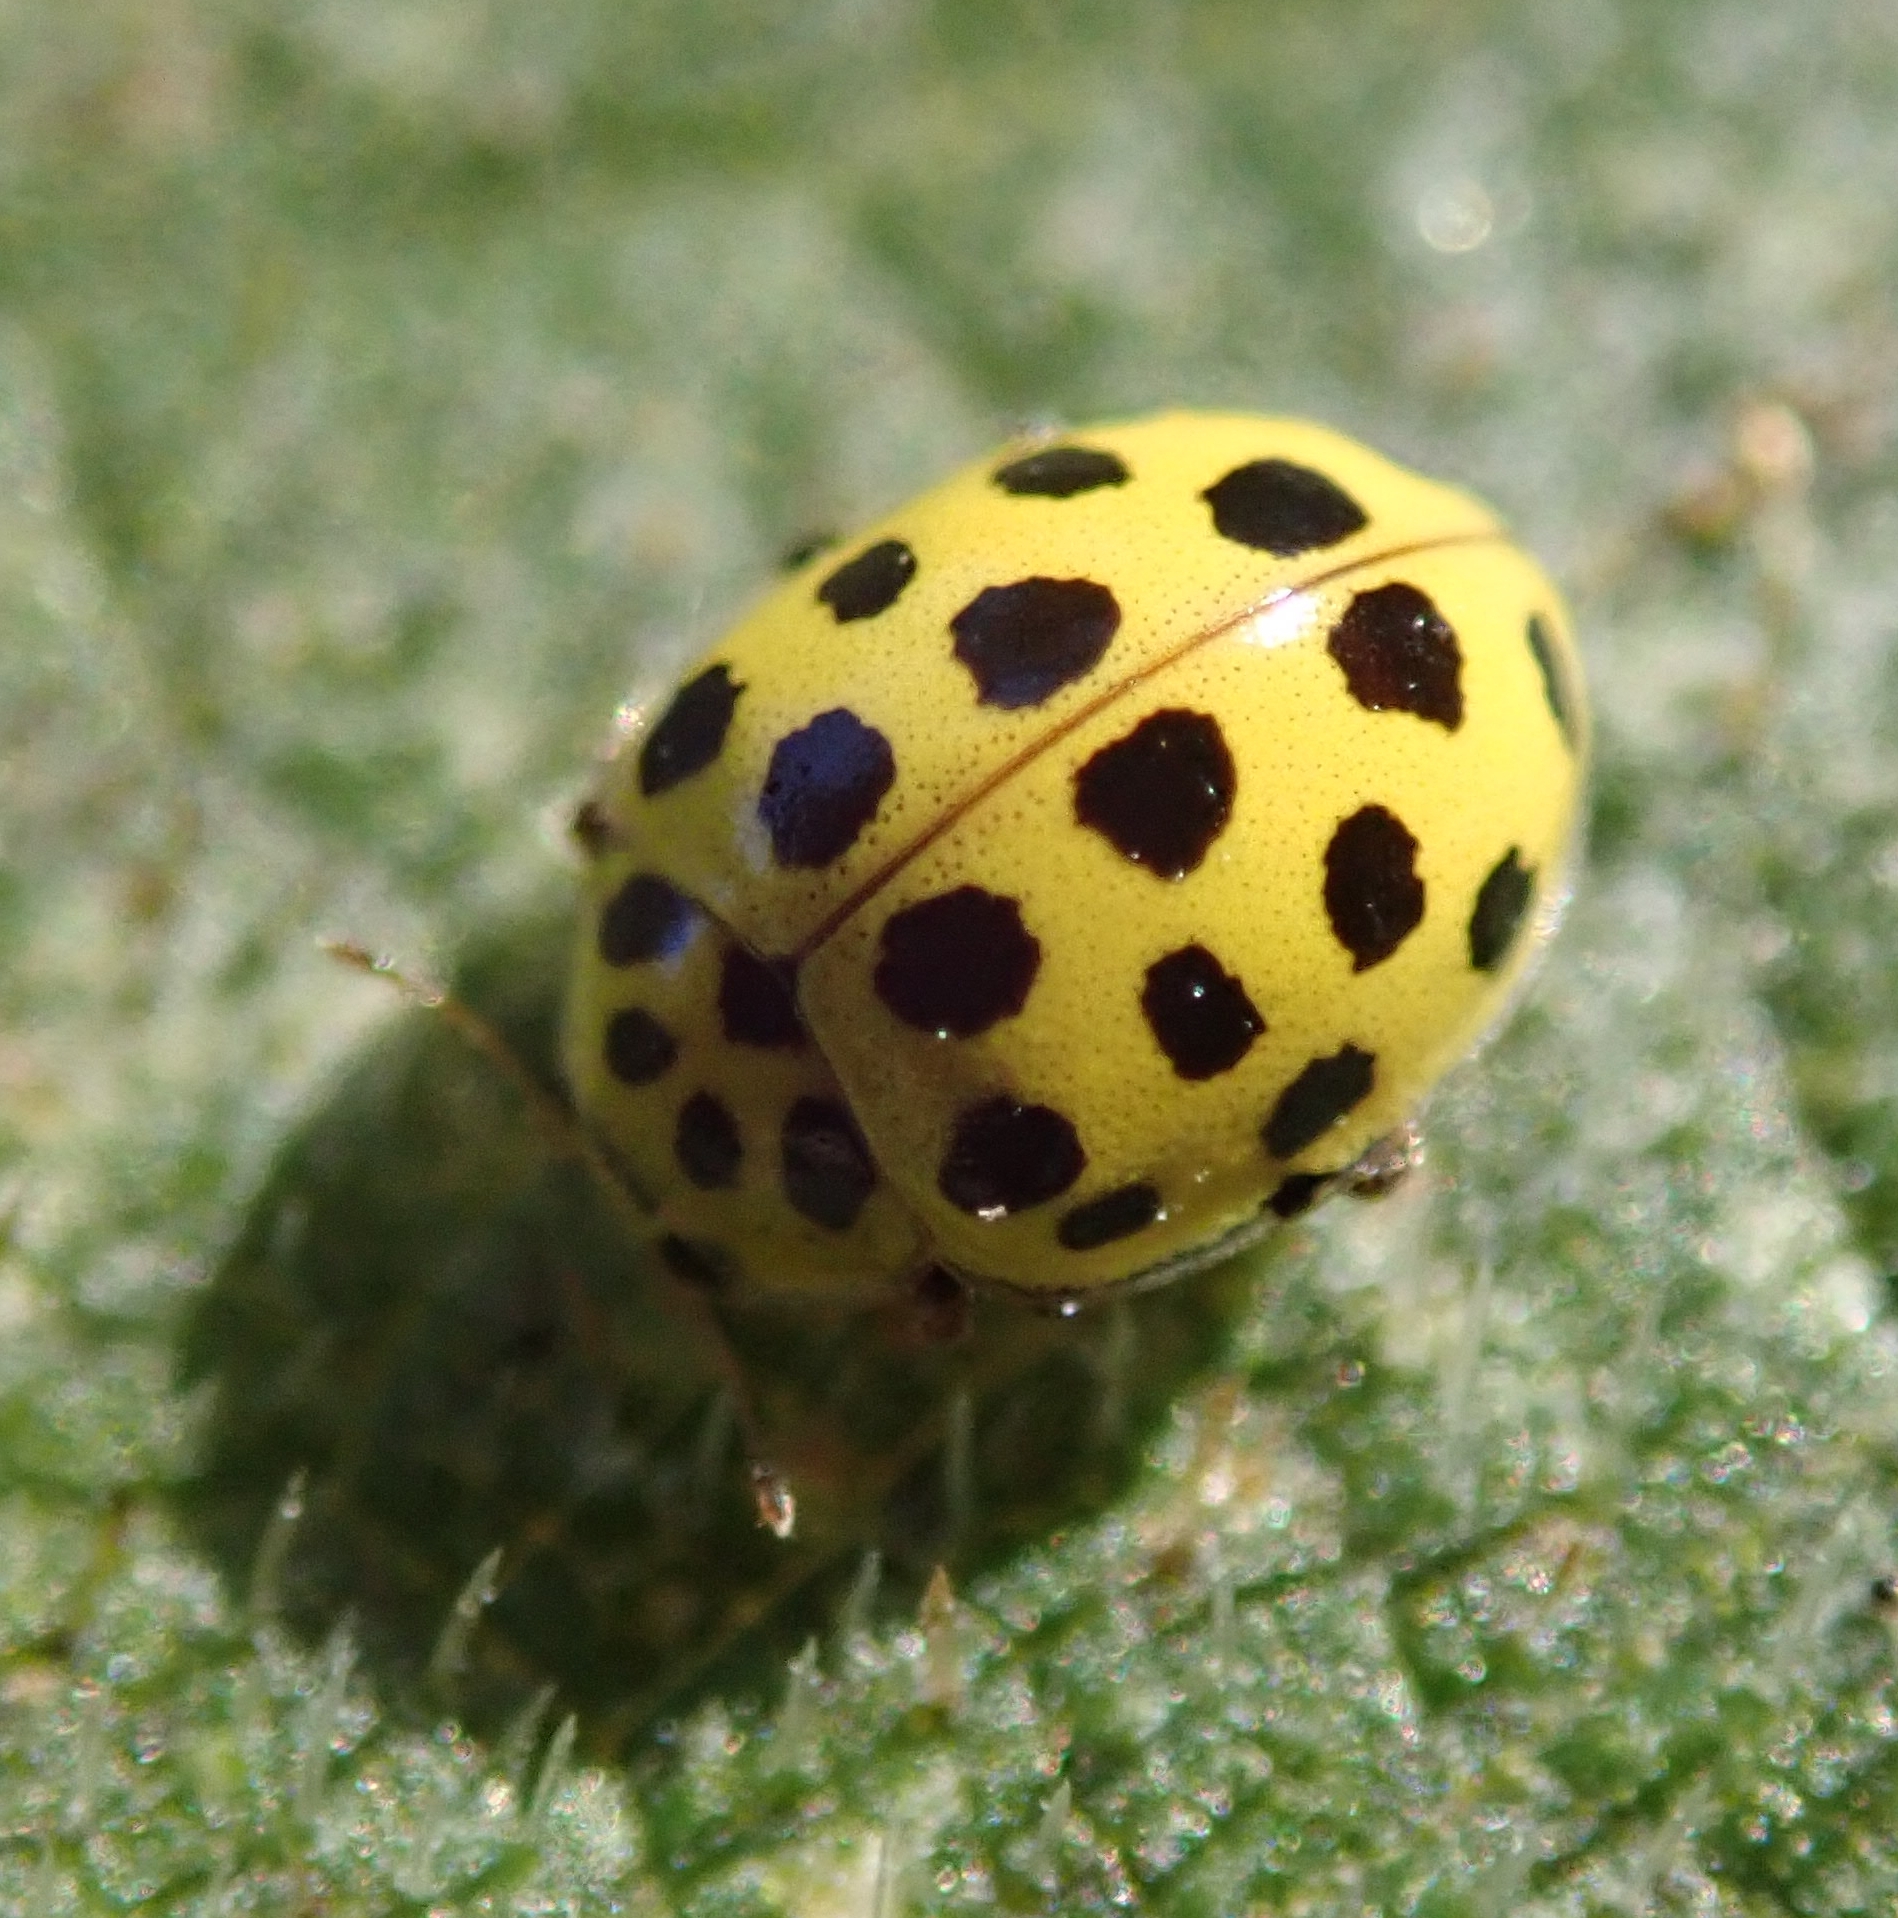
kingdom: Animalia
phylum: Arthropoda
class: Insecta
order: Coleoptera
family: Coccinellidae
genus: Psyllobora
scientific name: Psyllobora vigintiduopunctata
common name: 22-spot ladybird
